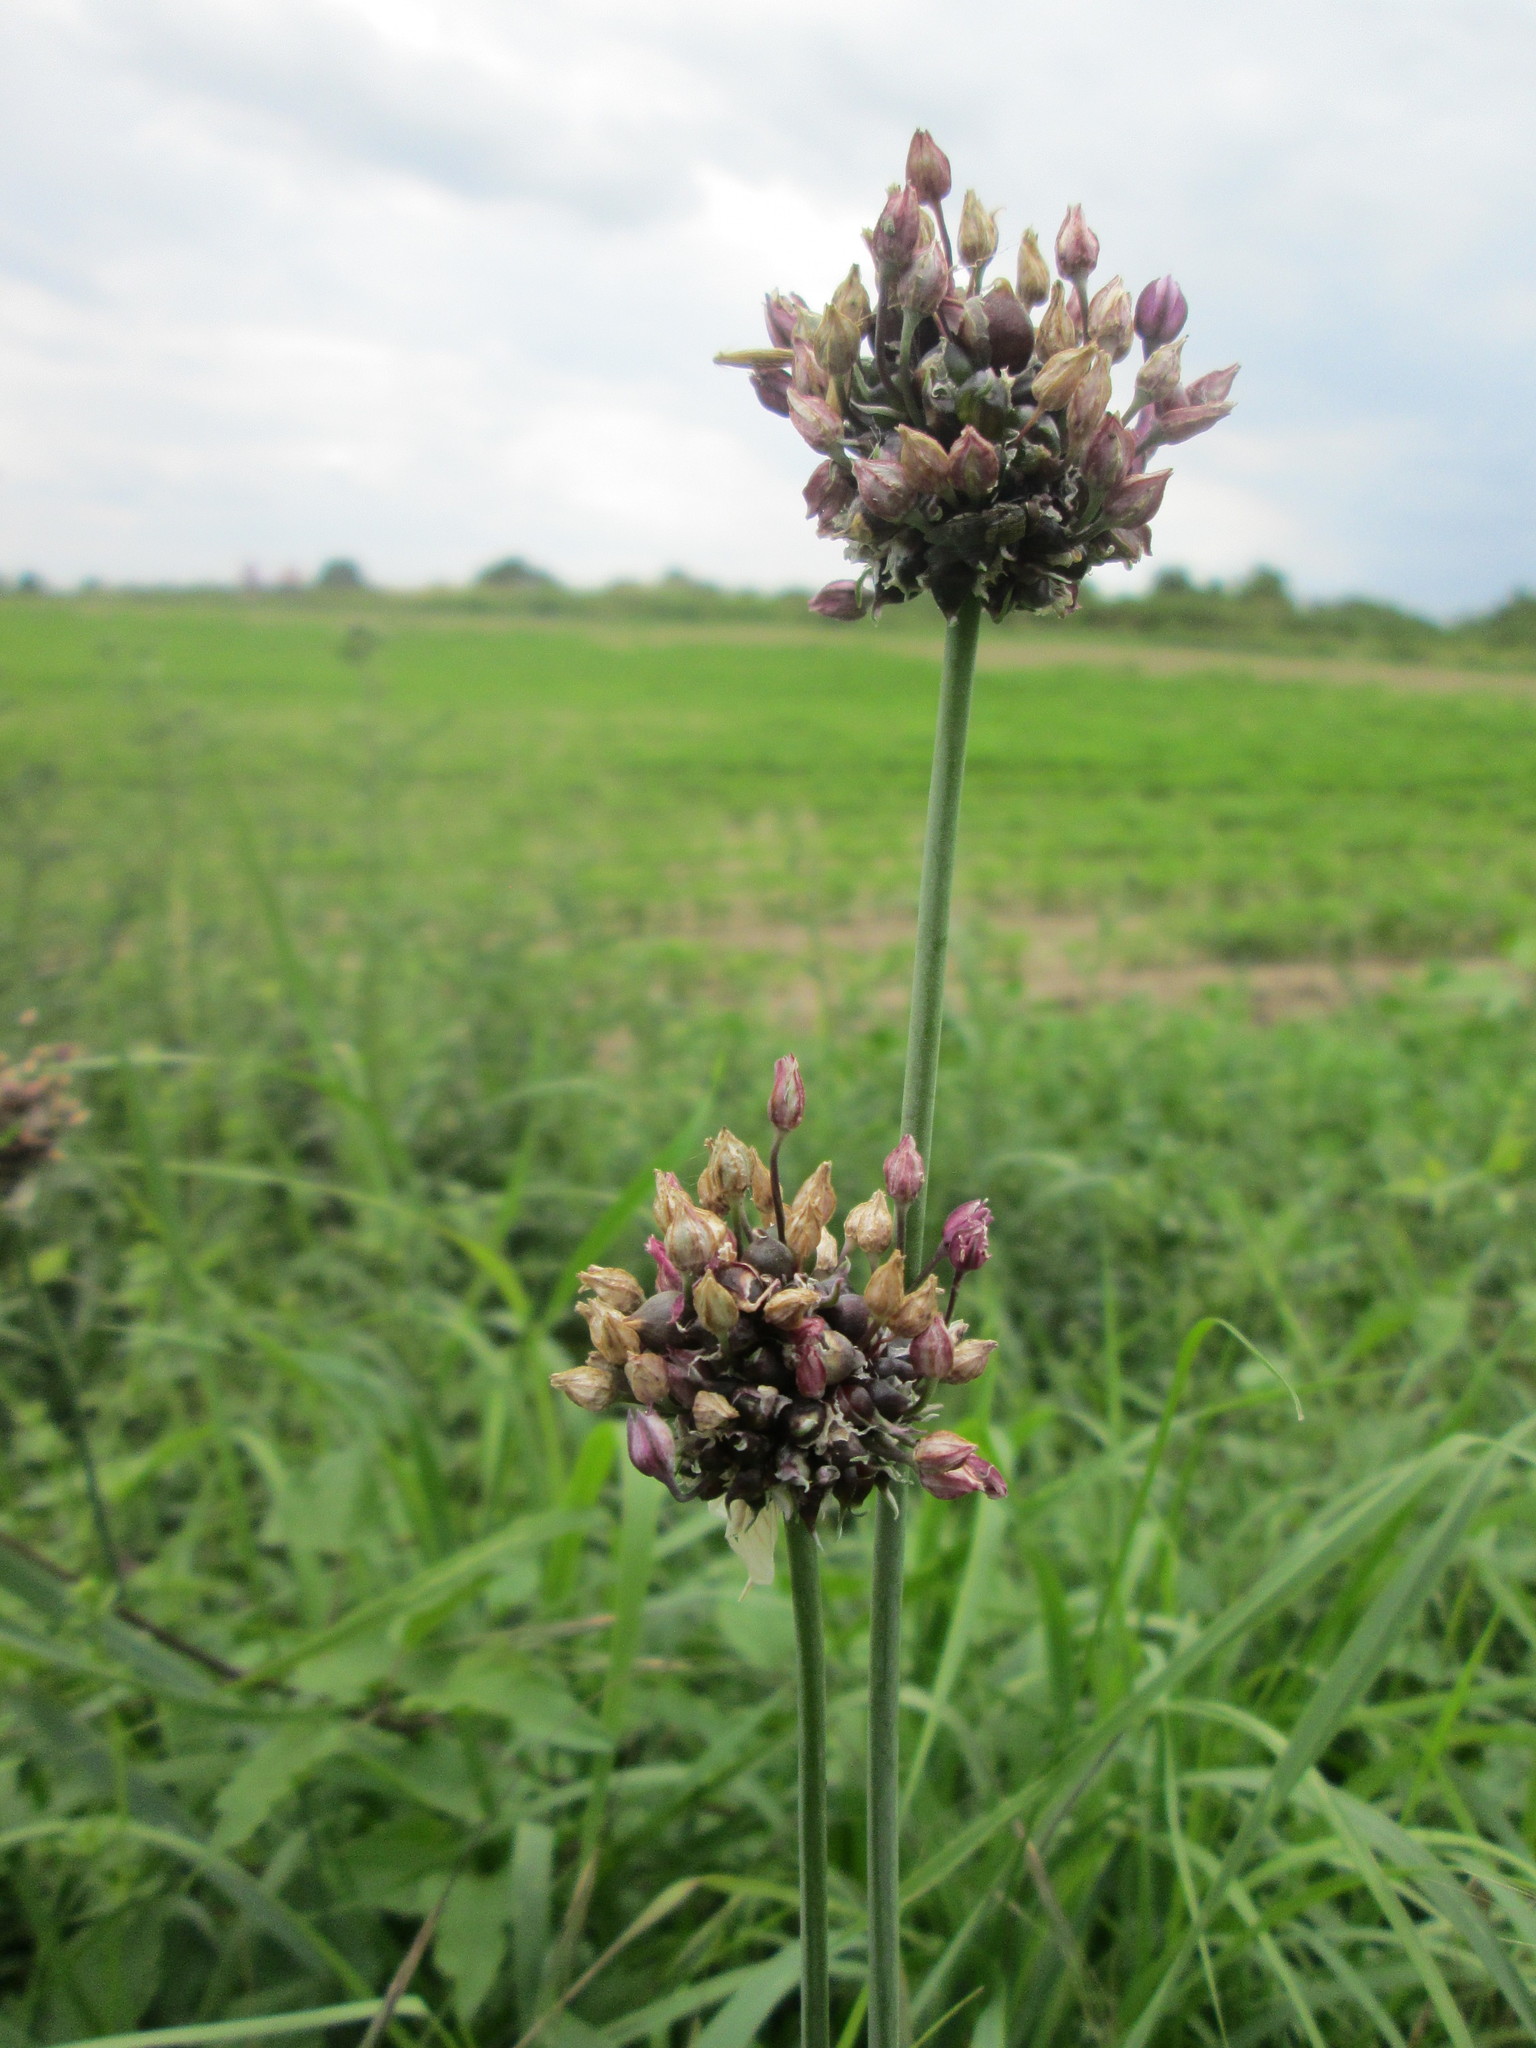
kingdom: Plantae
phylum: Tracheophyta
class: Liliopsida
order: Asparagales
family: Amaryllidaceae
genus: Allium
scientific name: Allium scorodoprasum
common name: Sand leek
